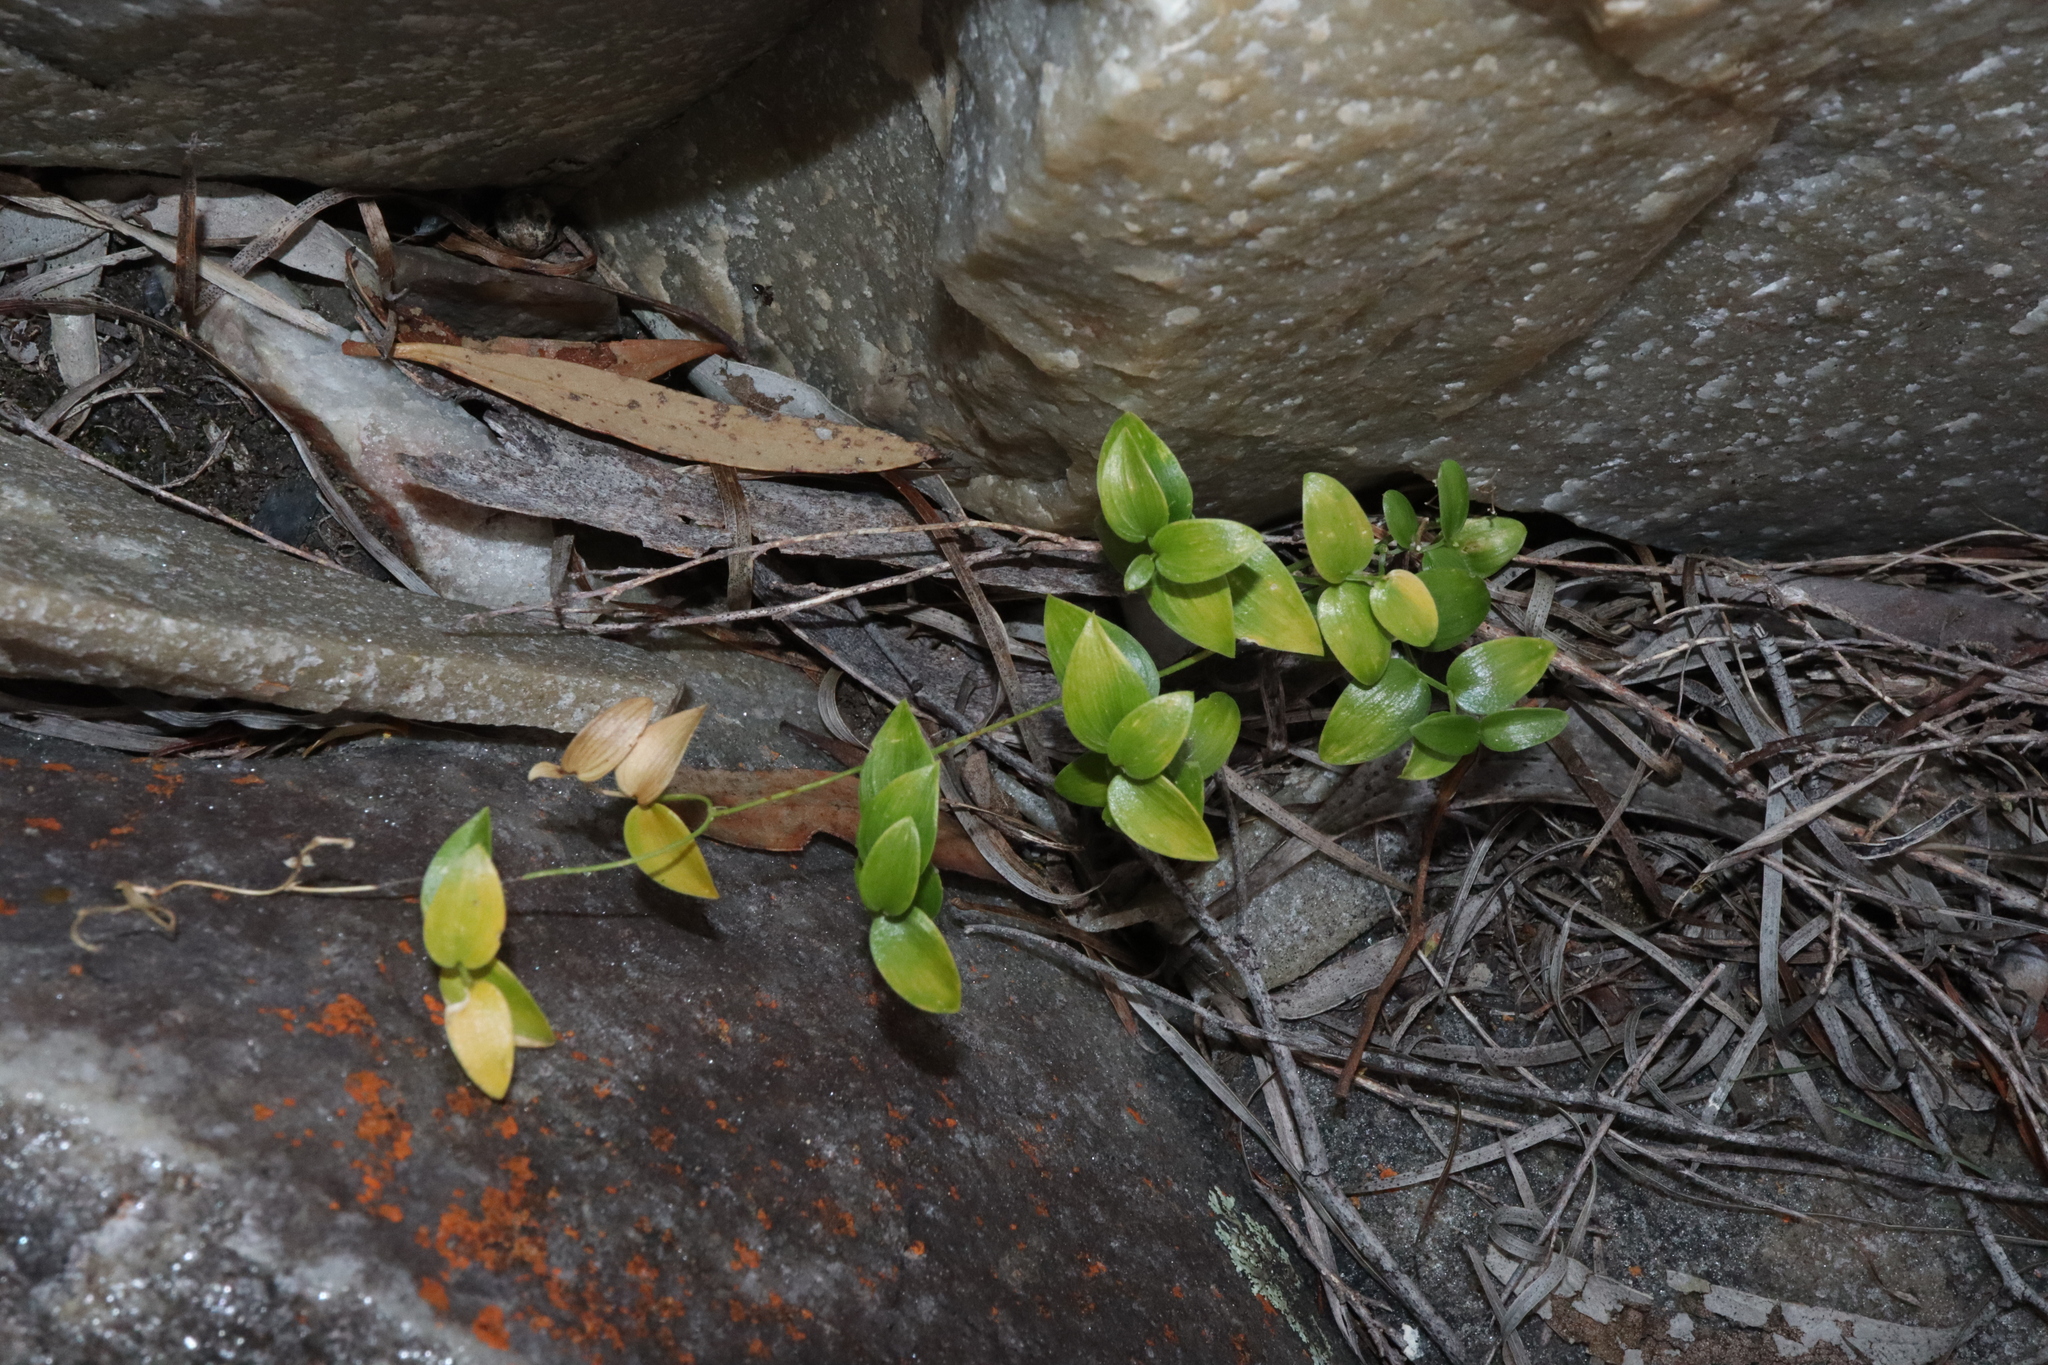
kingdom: Plantae
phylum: Tracheophyta
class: Liliopsida
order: Asparagales
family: Asparagaceae
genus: Asparagus
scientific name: Asparagus asparagoides
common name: African asparagus fern
